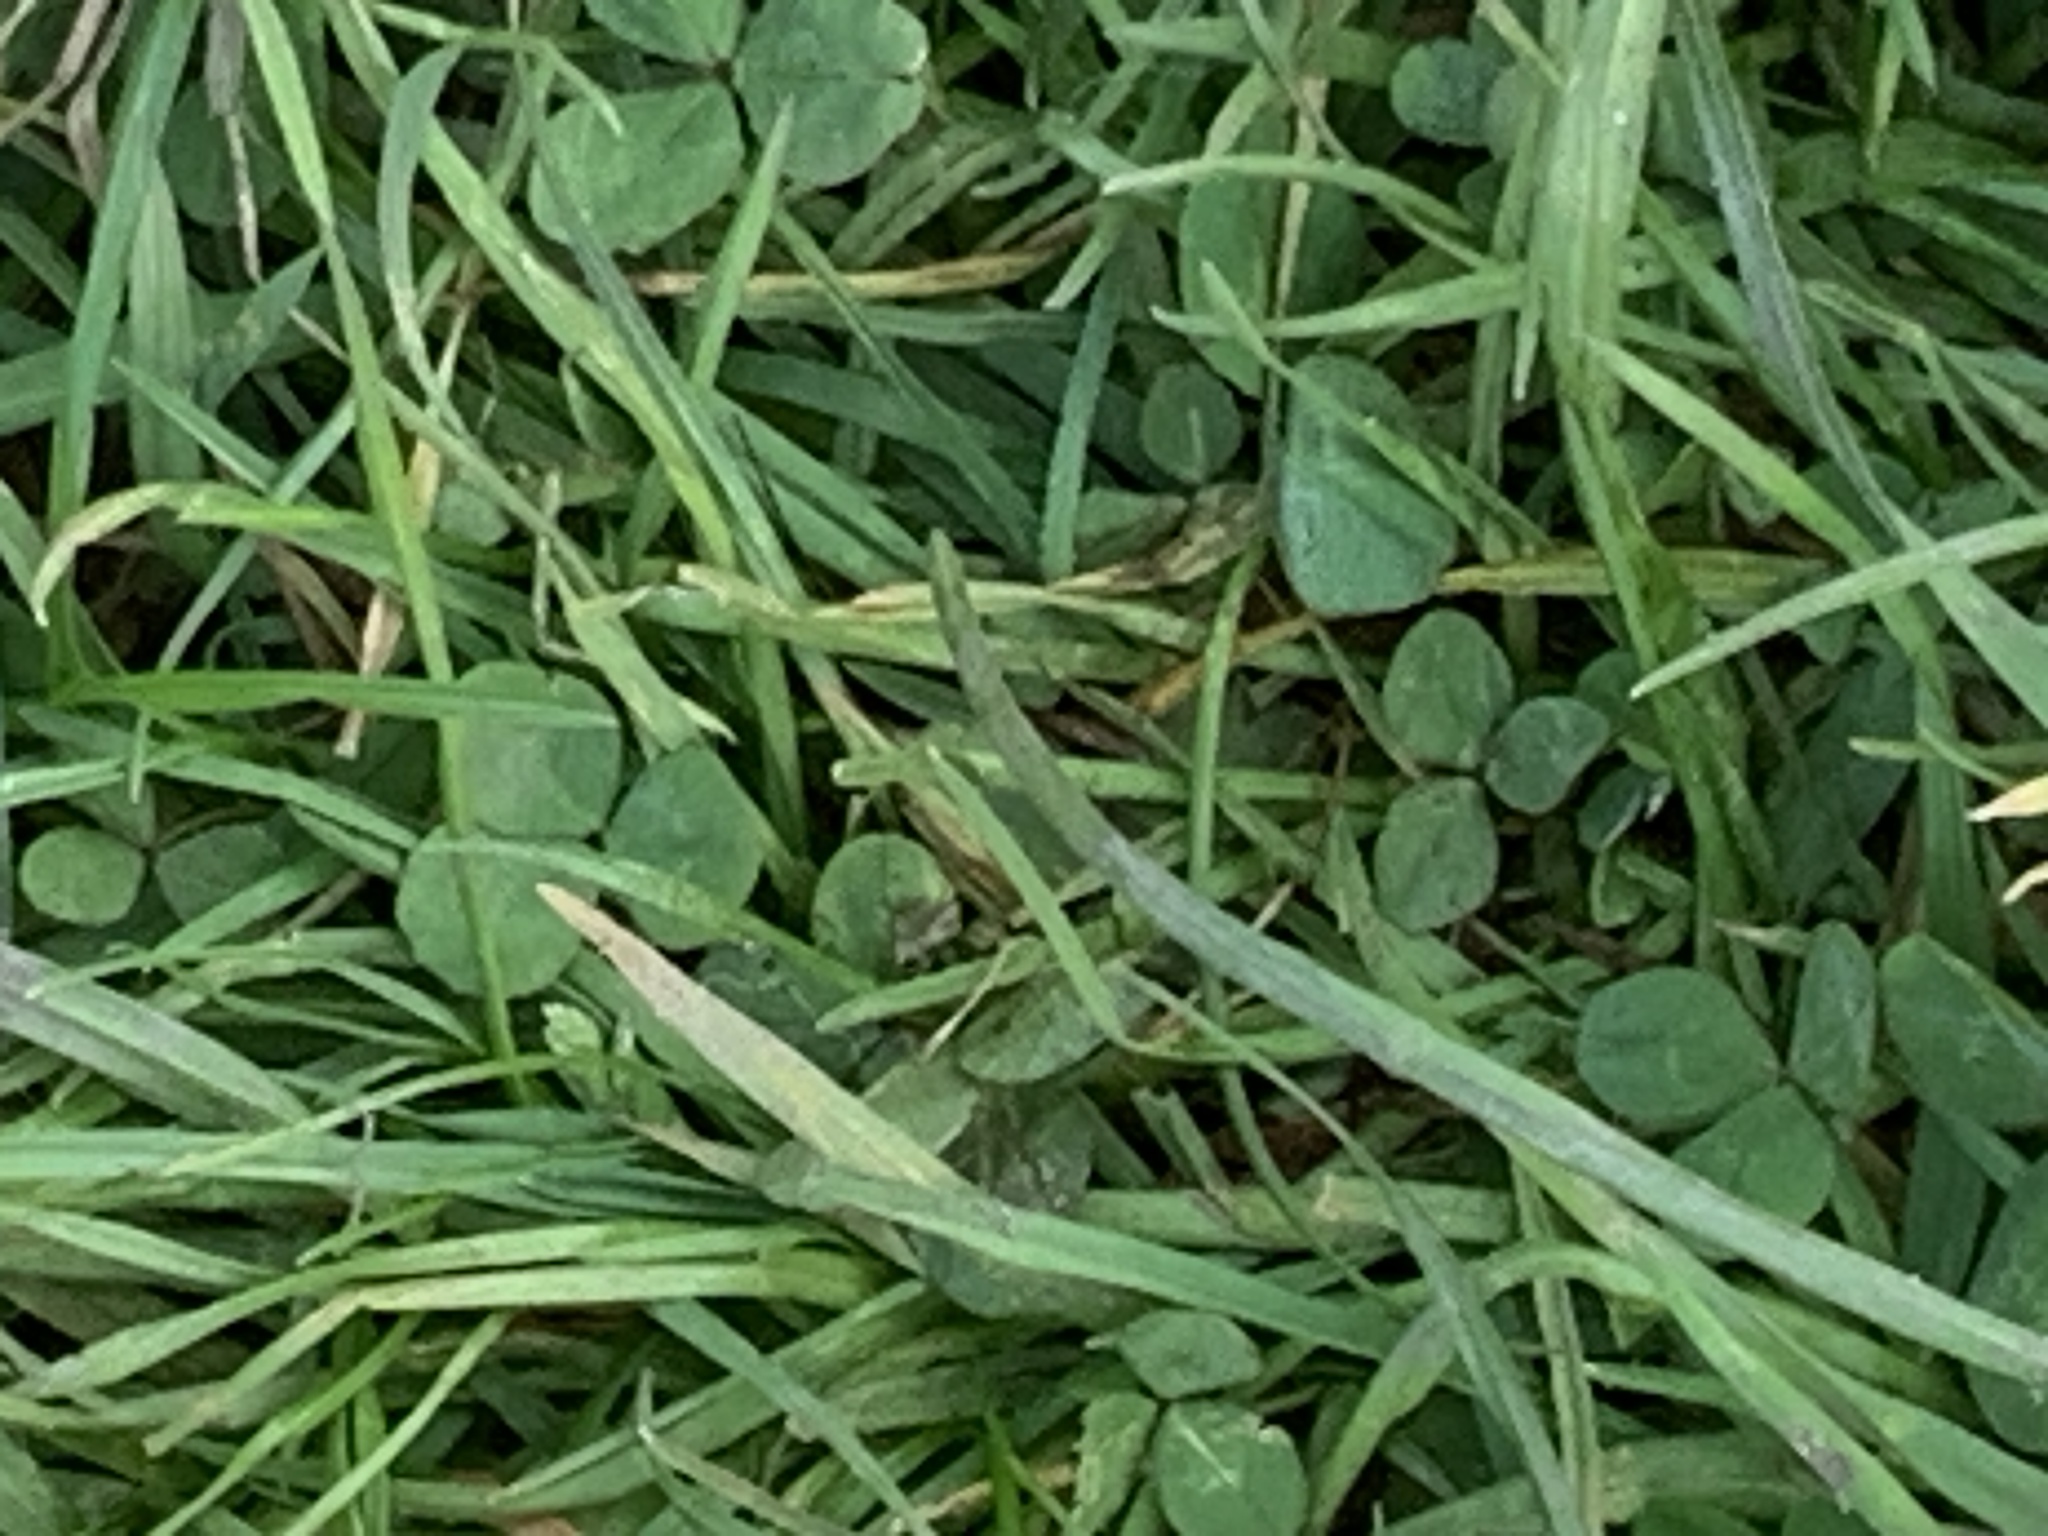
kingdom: Plantae
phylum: Tracheophyta
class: Magnoliopsida
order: Fabales
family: Fabaceae
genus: Trifolium
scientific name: Trifolium repens
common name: White clover
